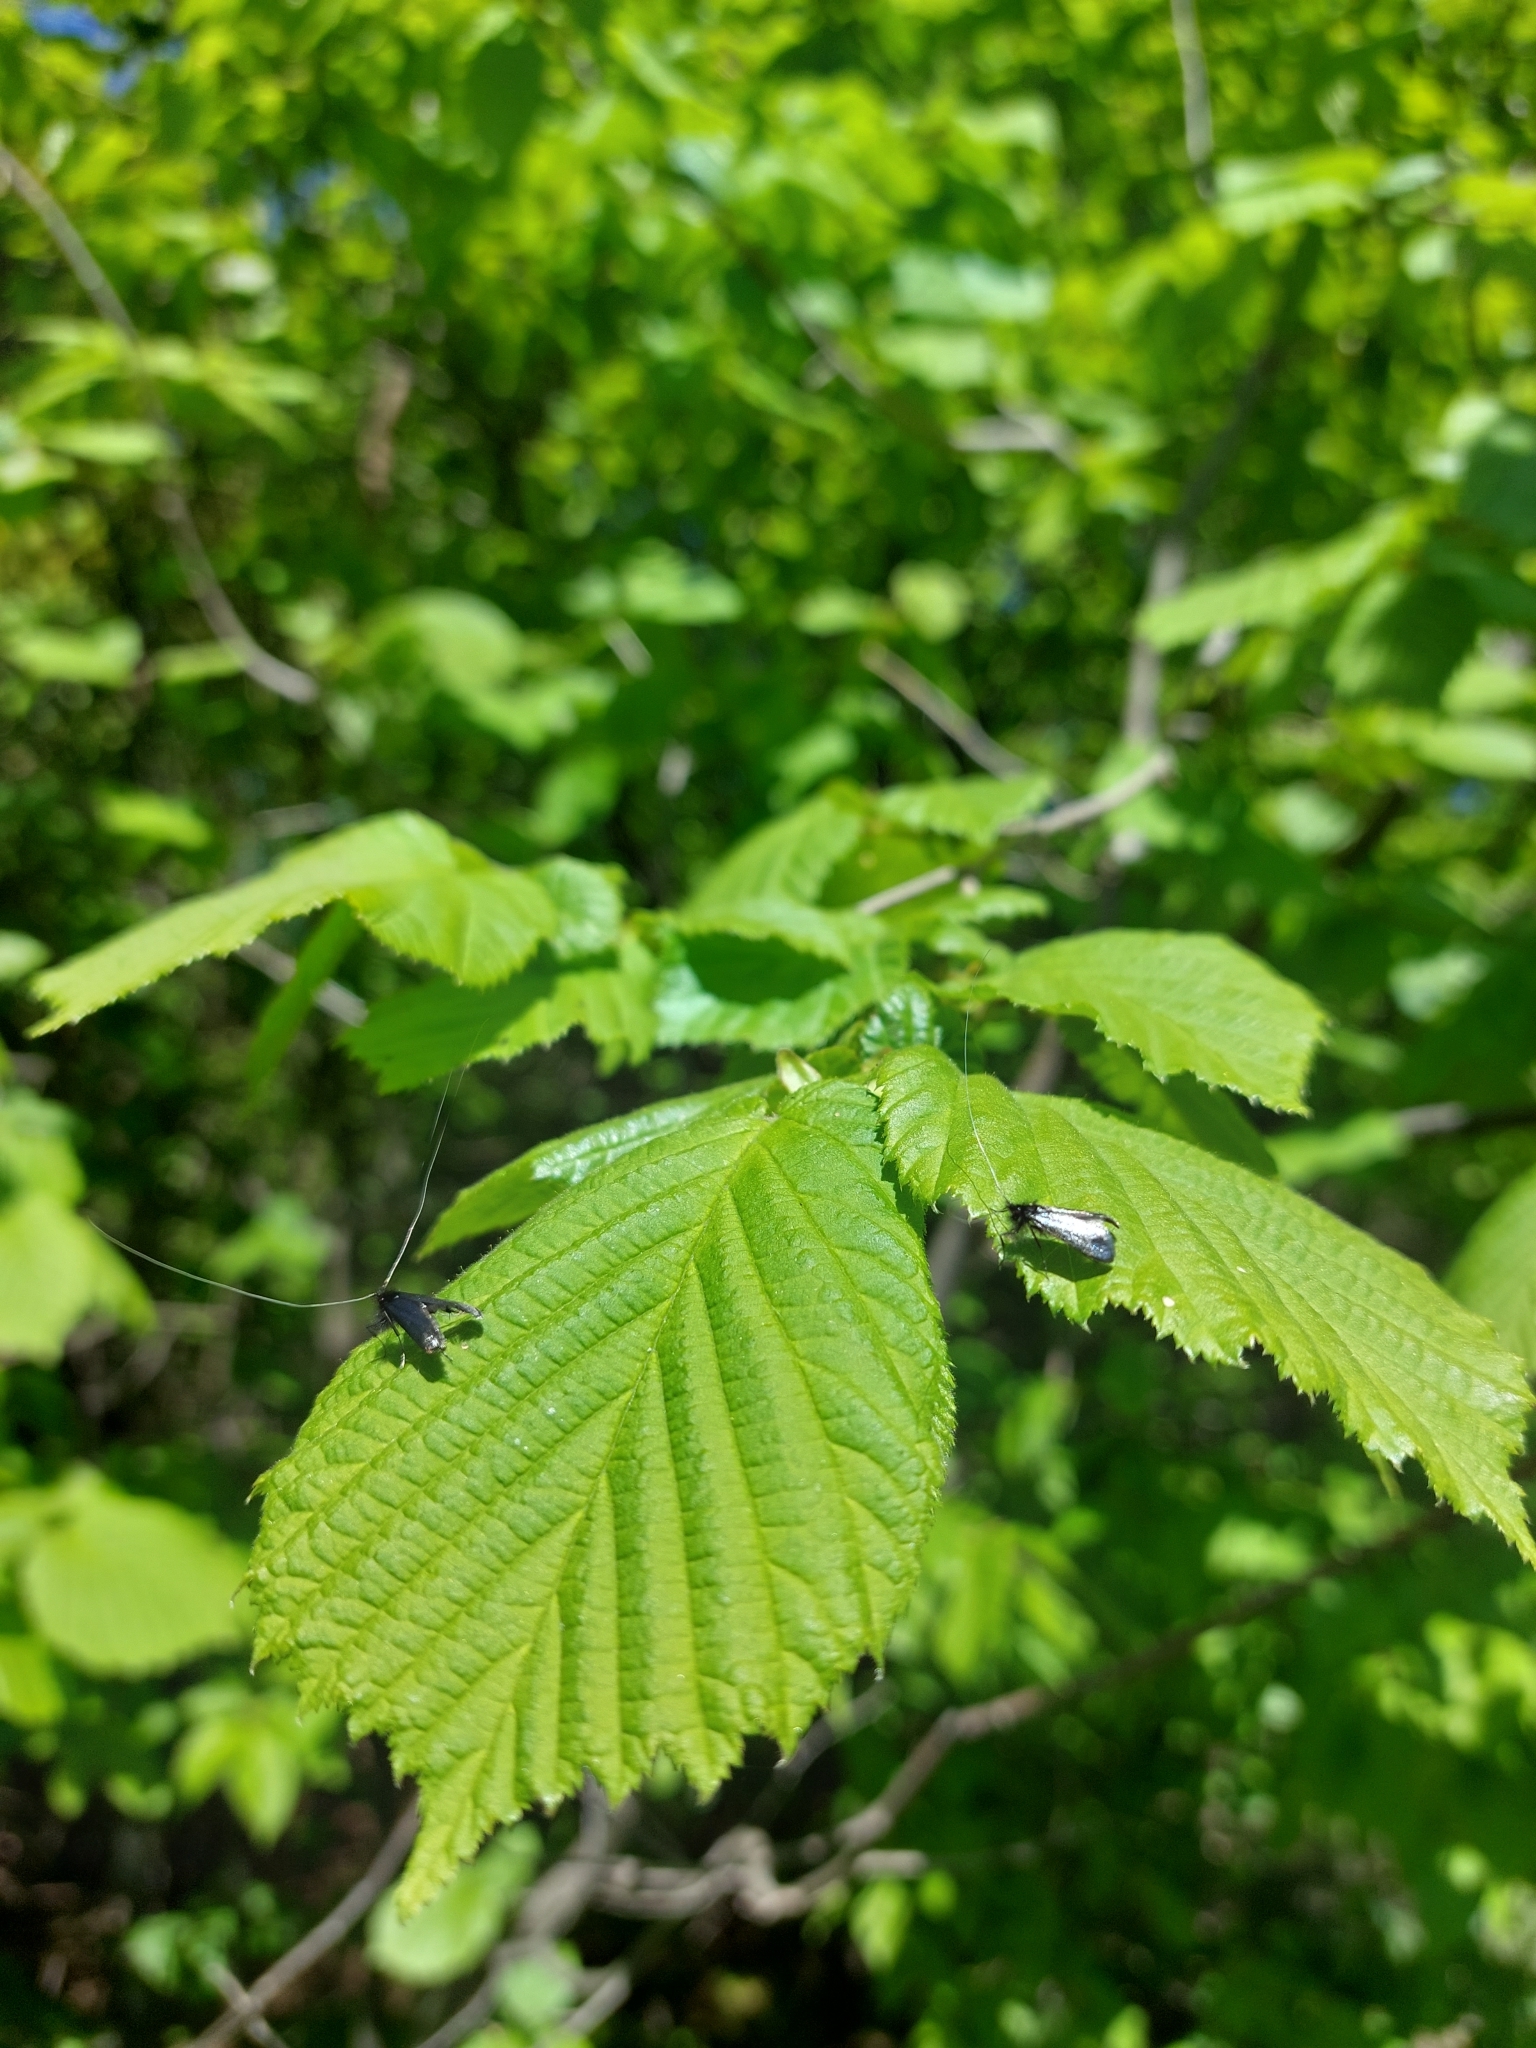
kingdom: Animalia
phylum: Arthropoda
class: Insecta
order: Lepidoptera
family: Adelidae
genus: Adela
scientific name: Adela viridella
